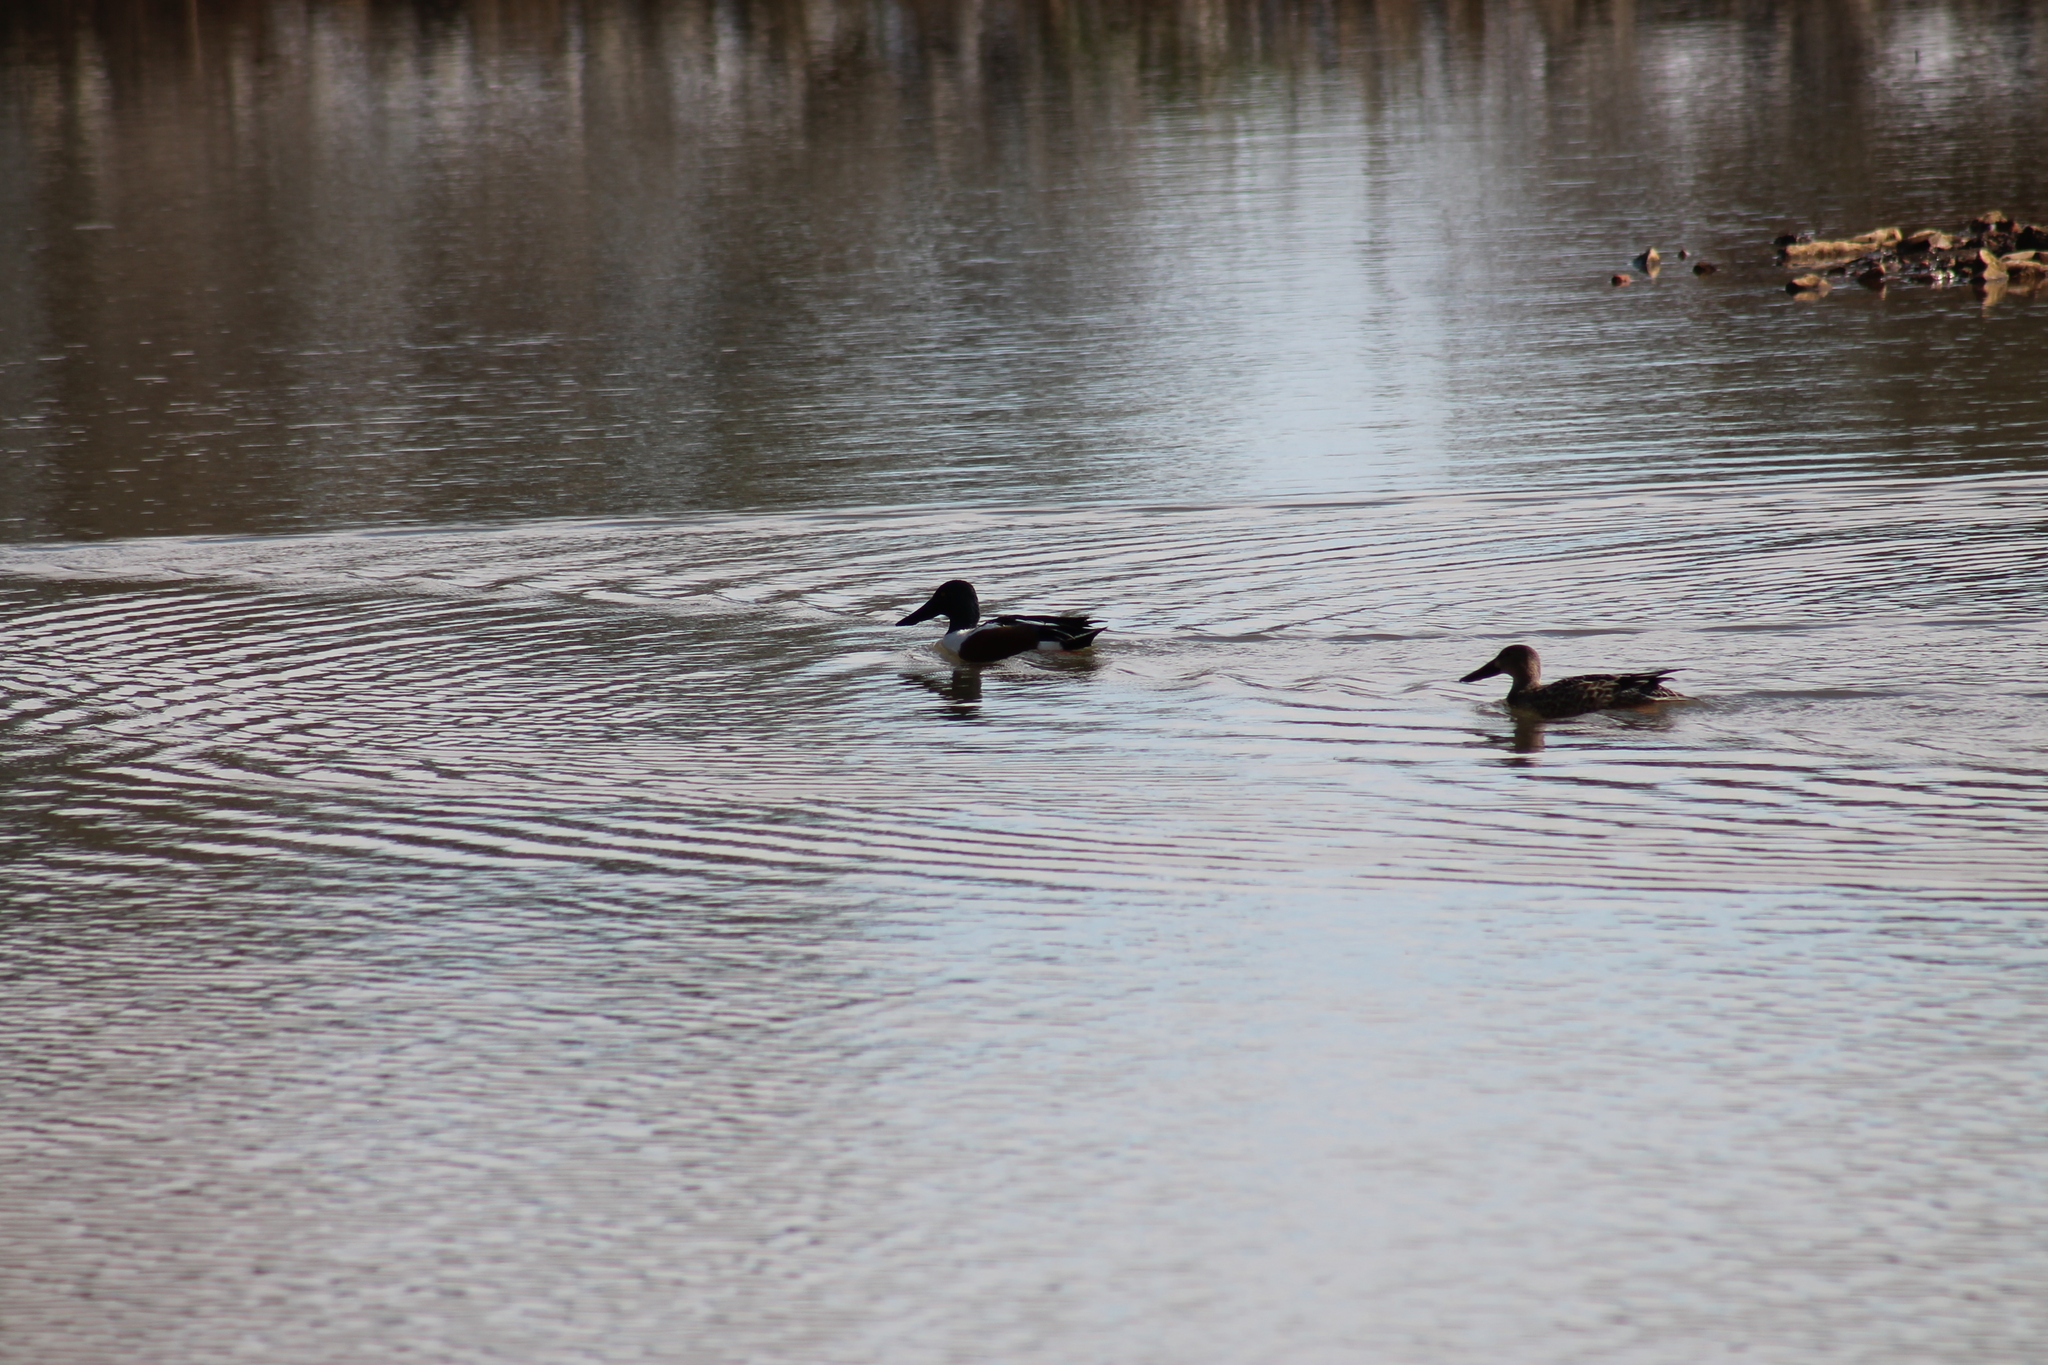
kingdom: Animalia
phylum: Chordata
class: Aves
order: Anseriformes
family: Anatidae
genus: Spatula
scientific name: Spatula clypeata
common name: Northern shoveler
